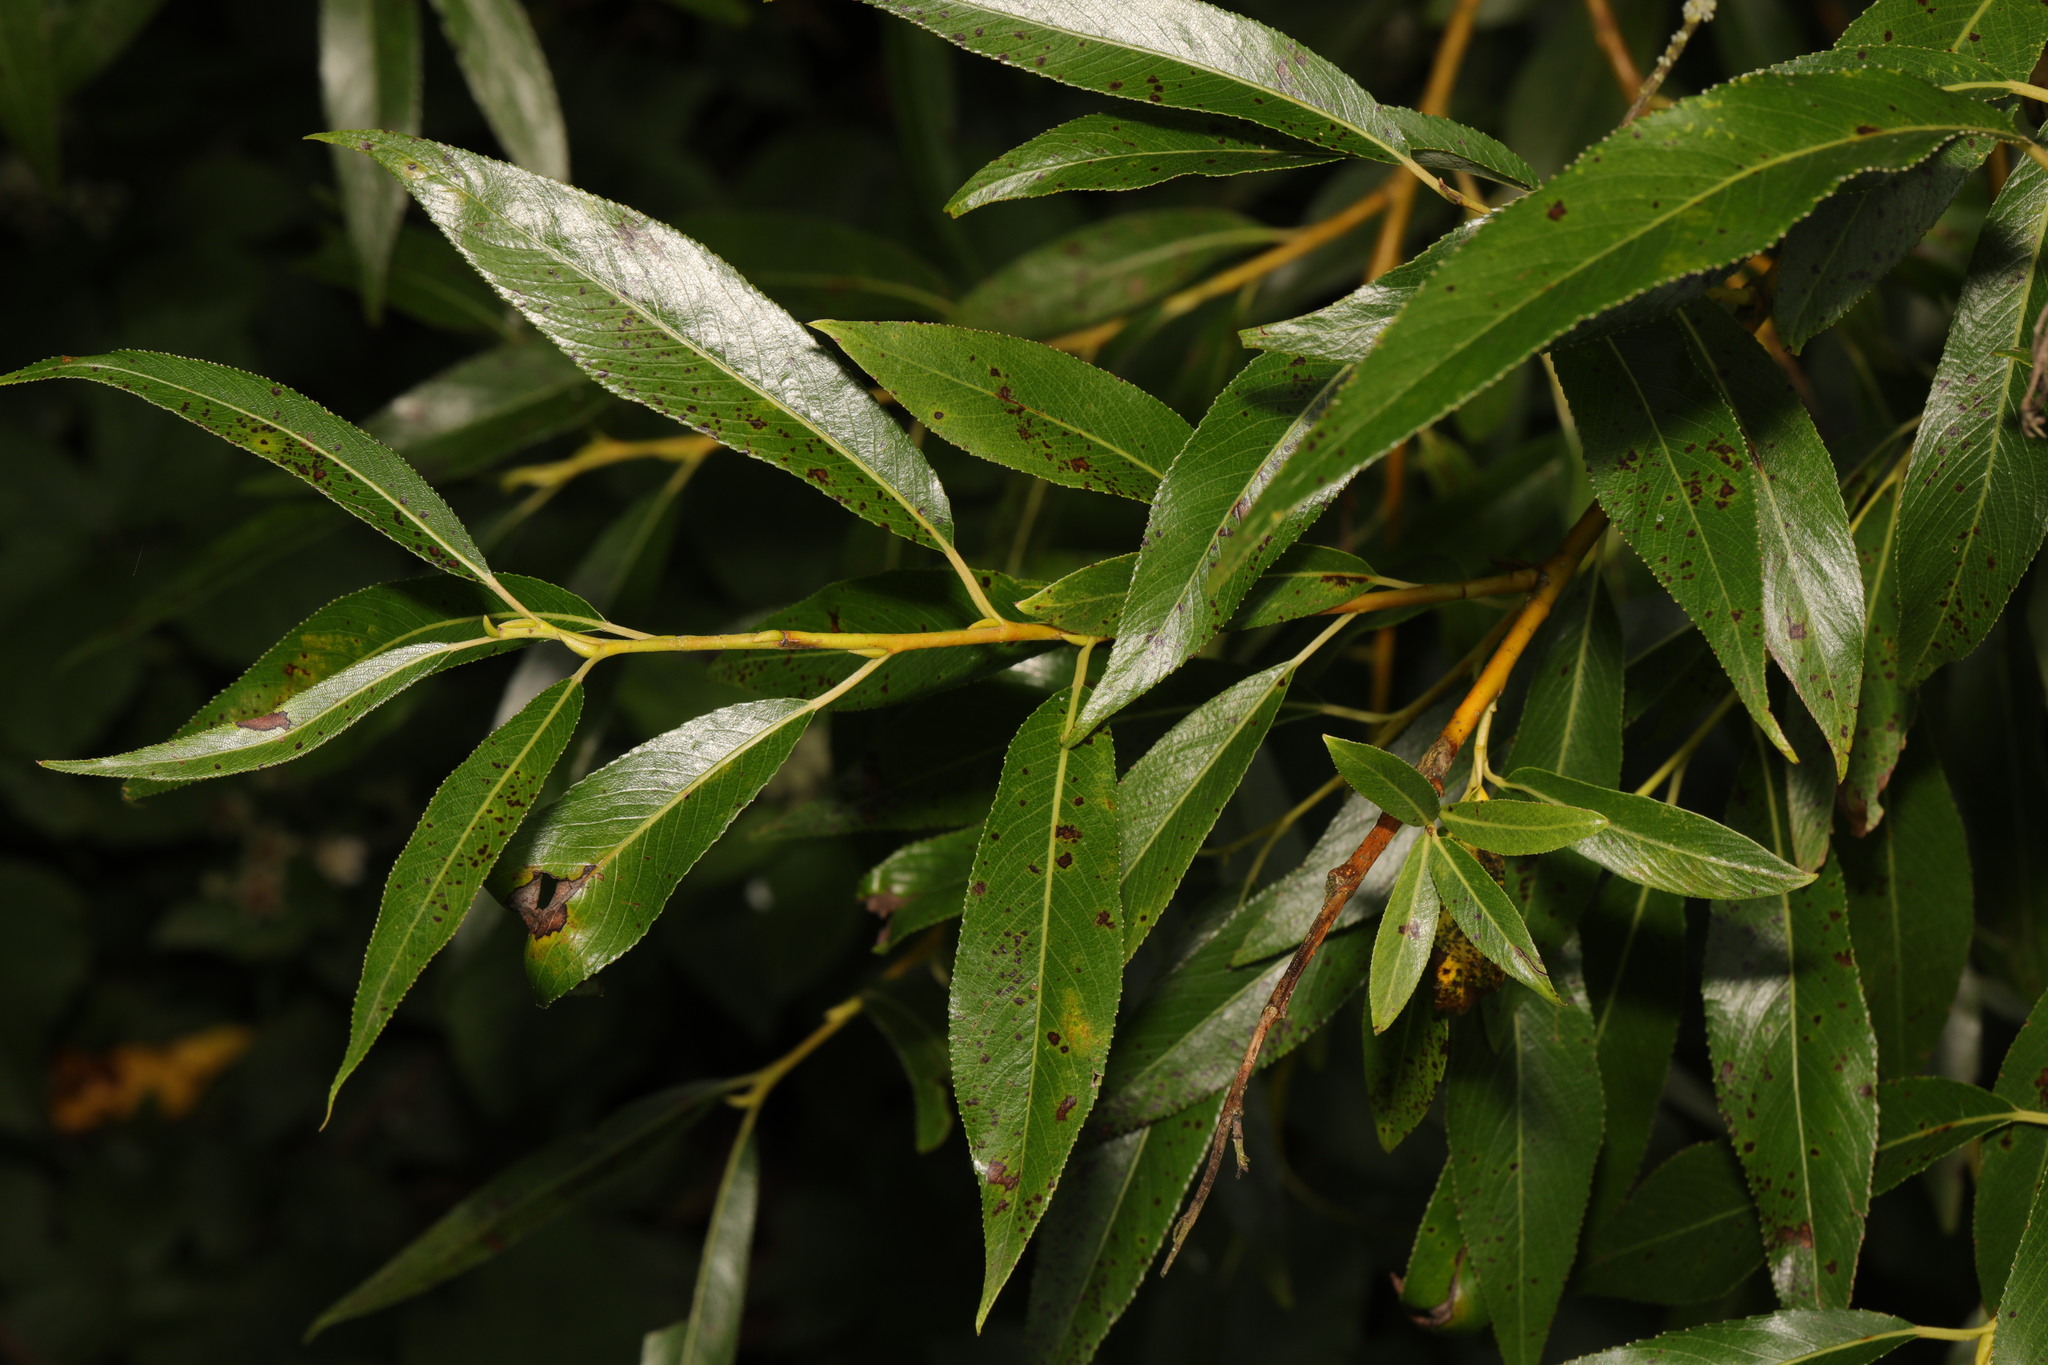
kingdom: Plantae
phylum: Tracheophyta
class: Magnoliopsida
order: Malpighiales
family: Salicaceae
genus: Salix
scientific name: Salix fragilis
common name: Crack willow
